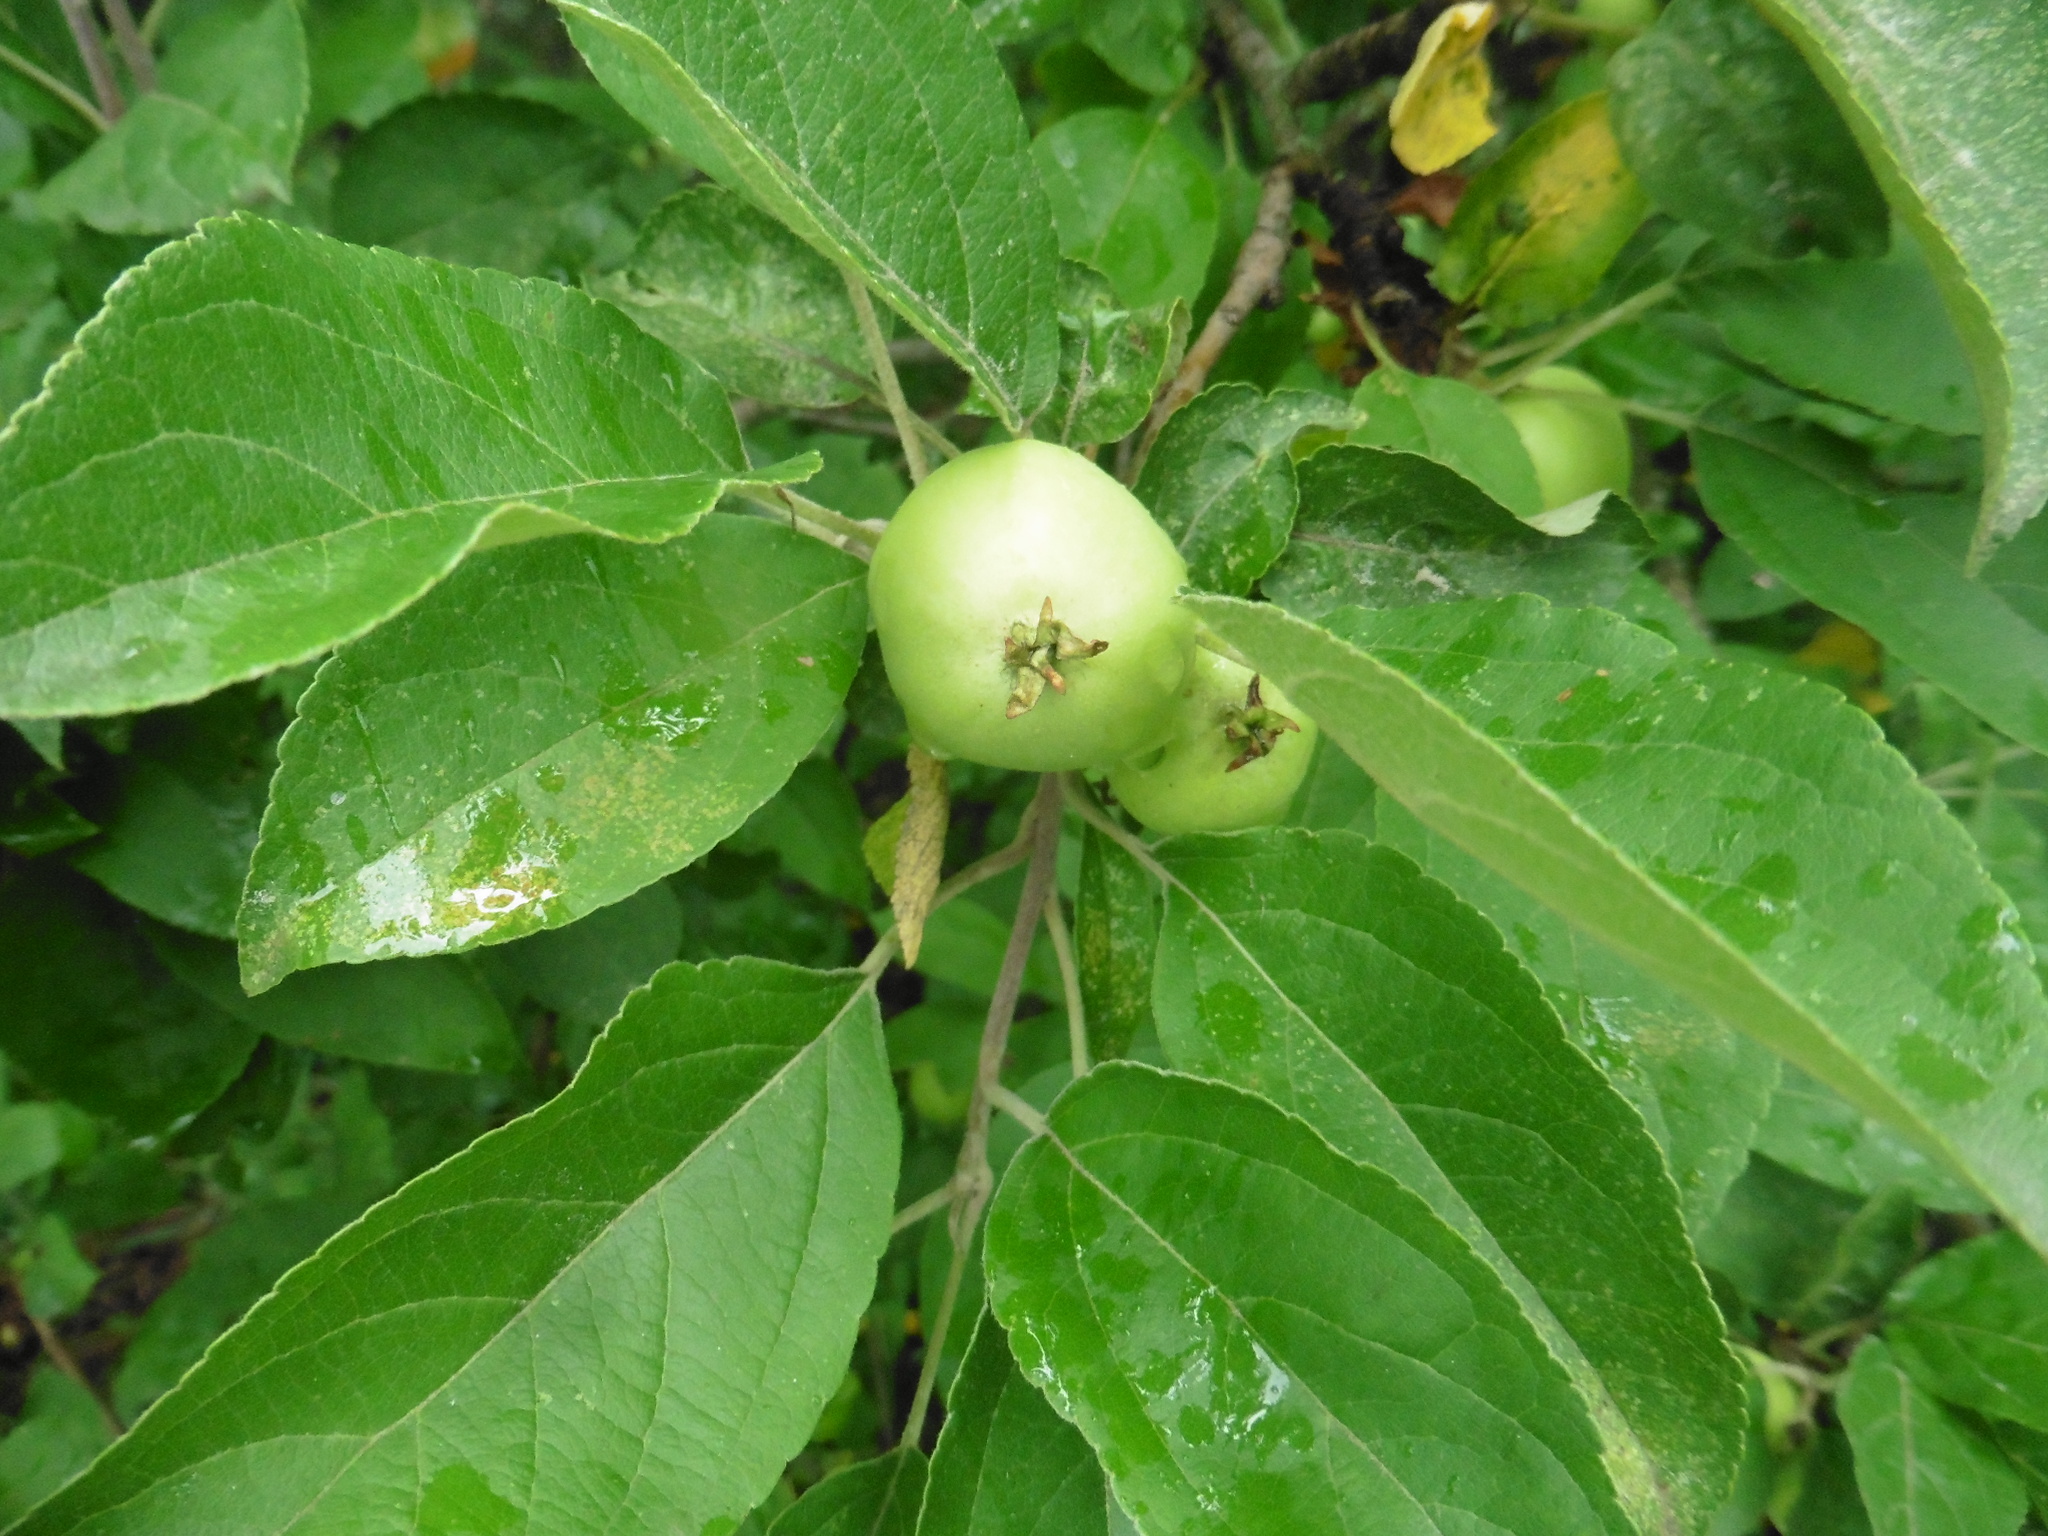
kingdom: Plantae
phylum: Tracheophyta
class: Magnoliopsida
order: Rosales
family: Rosaceae
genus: Malus
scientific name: Malus domestica
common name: Apple
